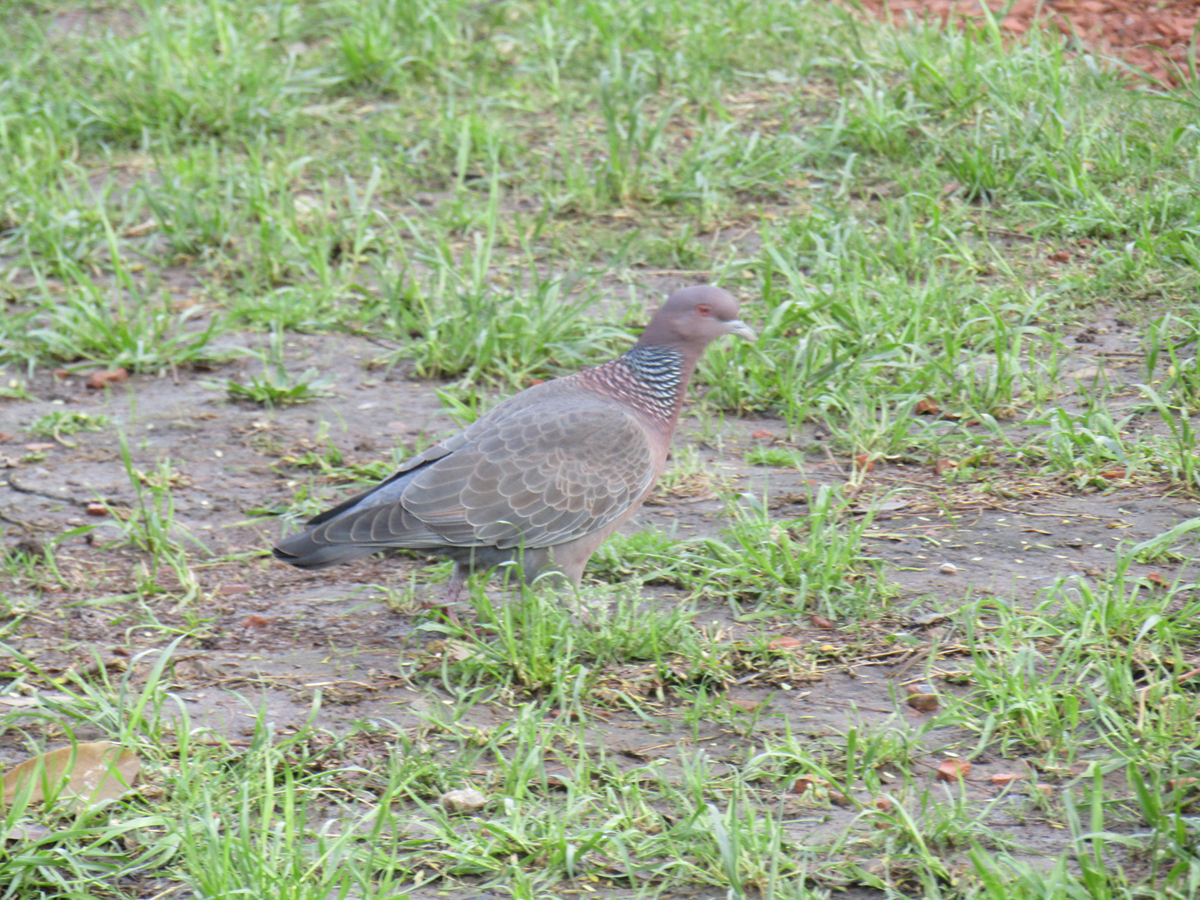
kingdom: Animalia
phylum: Chordata
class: Aves
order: Columbiformes
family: Columbidae
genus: Patagioenas
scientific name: Patagioenas picazuro
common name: Picazuro pigeon
